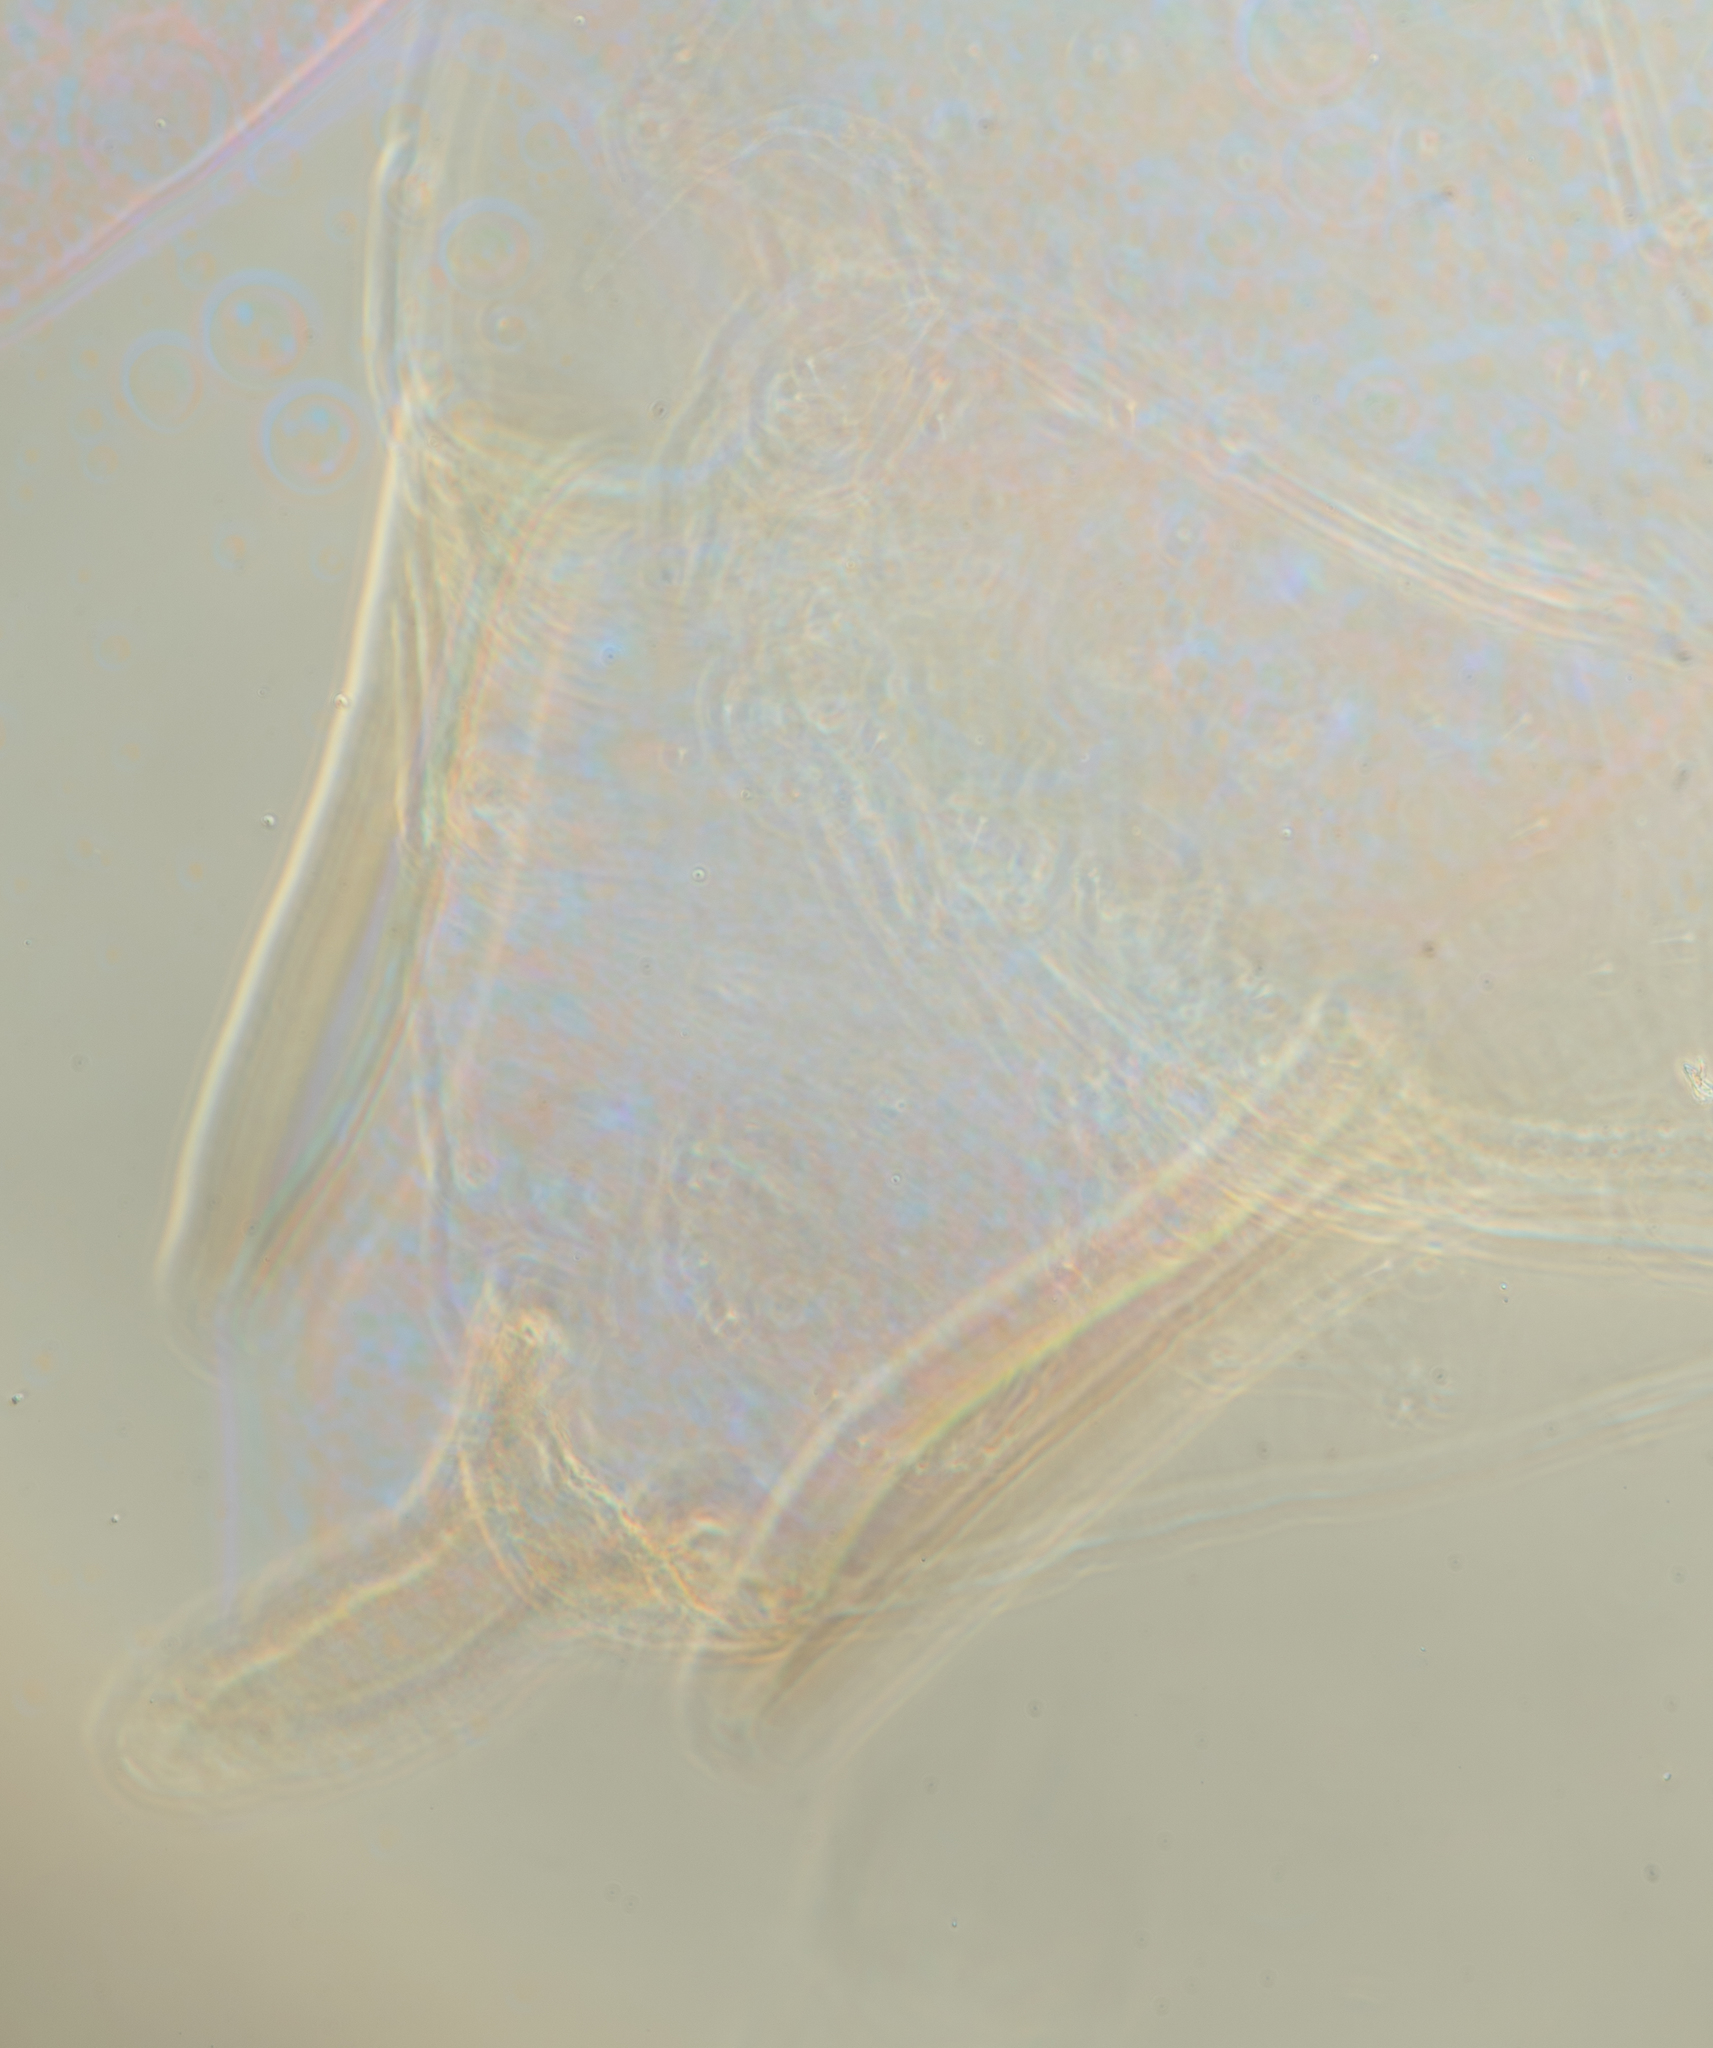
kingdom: Animalia
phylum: Arthropoda
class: Insecta
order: Hemiptera
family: Aphididae
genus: Hyperomyzus
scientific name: Hyperomyzus lactucae
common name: Sow thistle aphid
